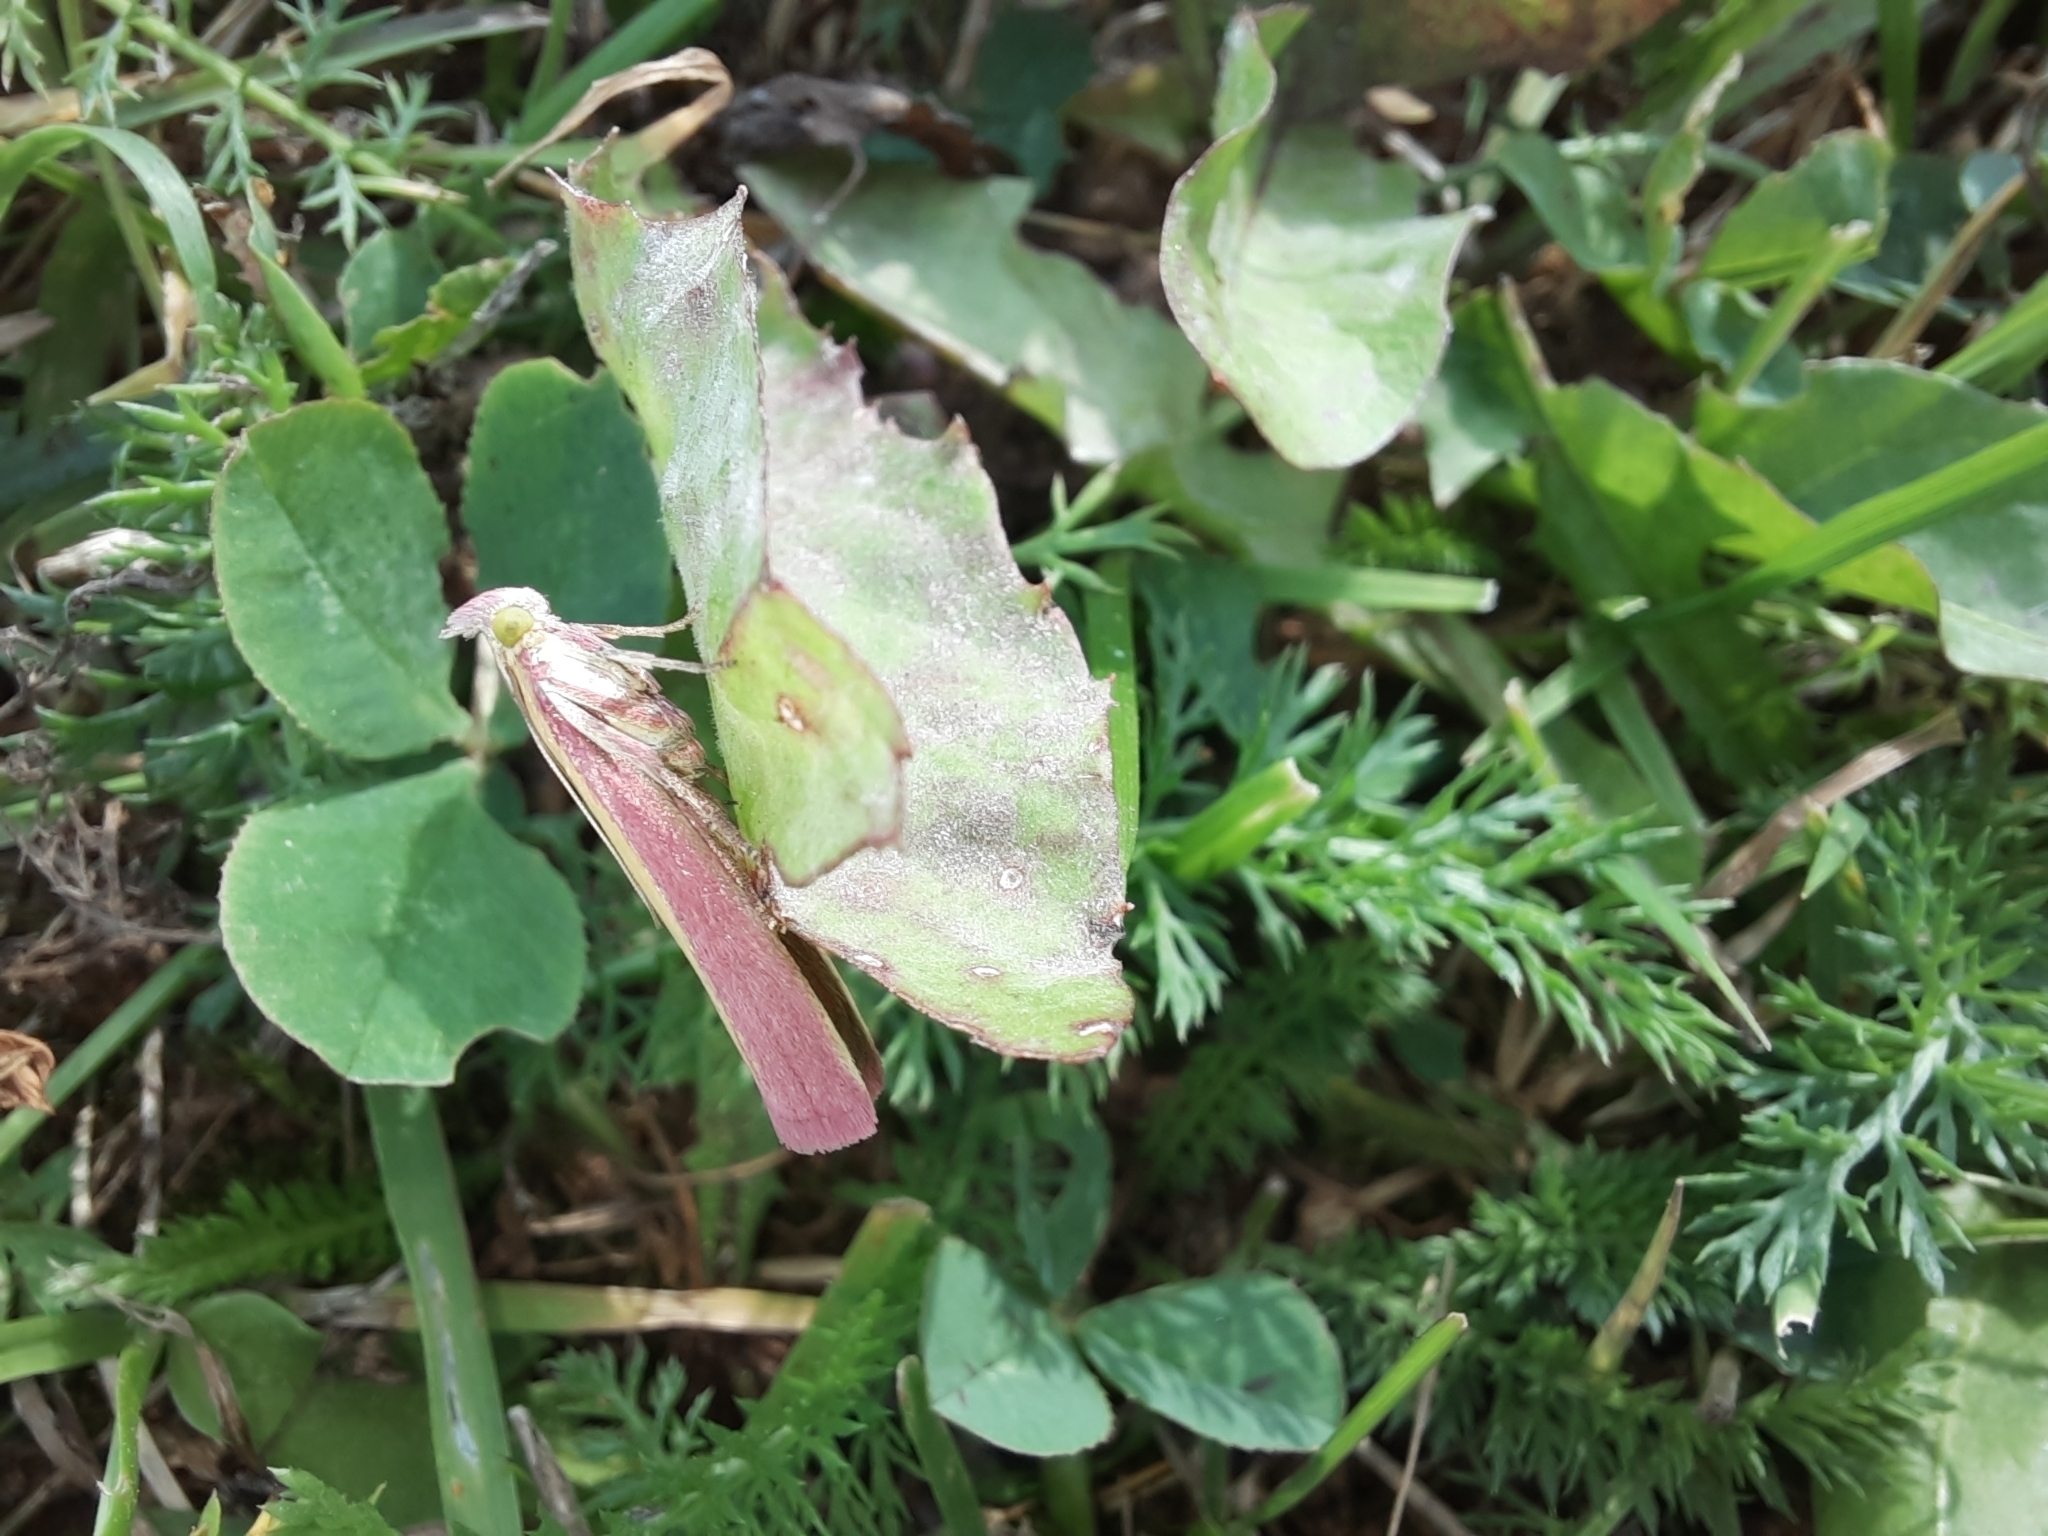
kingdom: Animalia
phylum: Arthropoda
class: Insecta
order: Lepidoptera
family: Pyralidae
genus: Oncocera
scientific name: Oncocera semirubella
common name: Rosy-striped knot-horn
